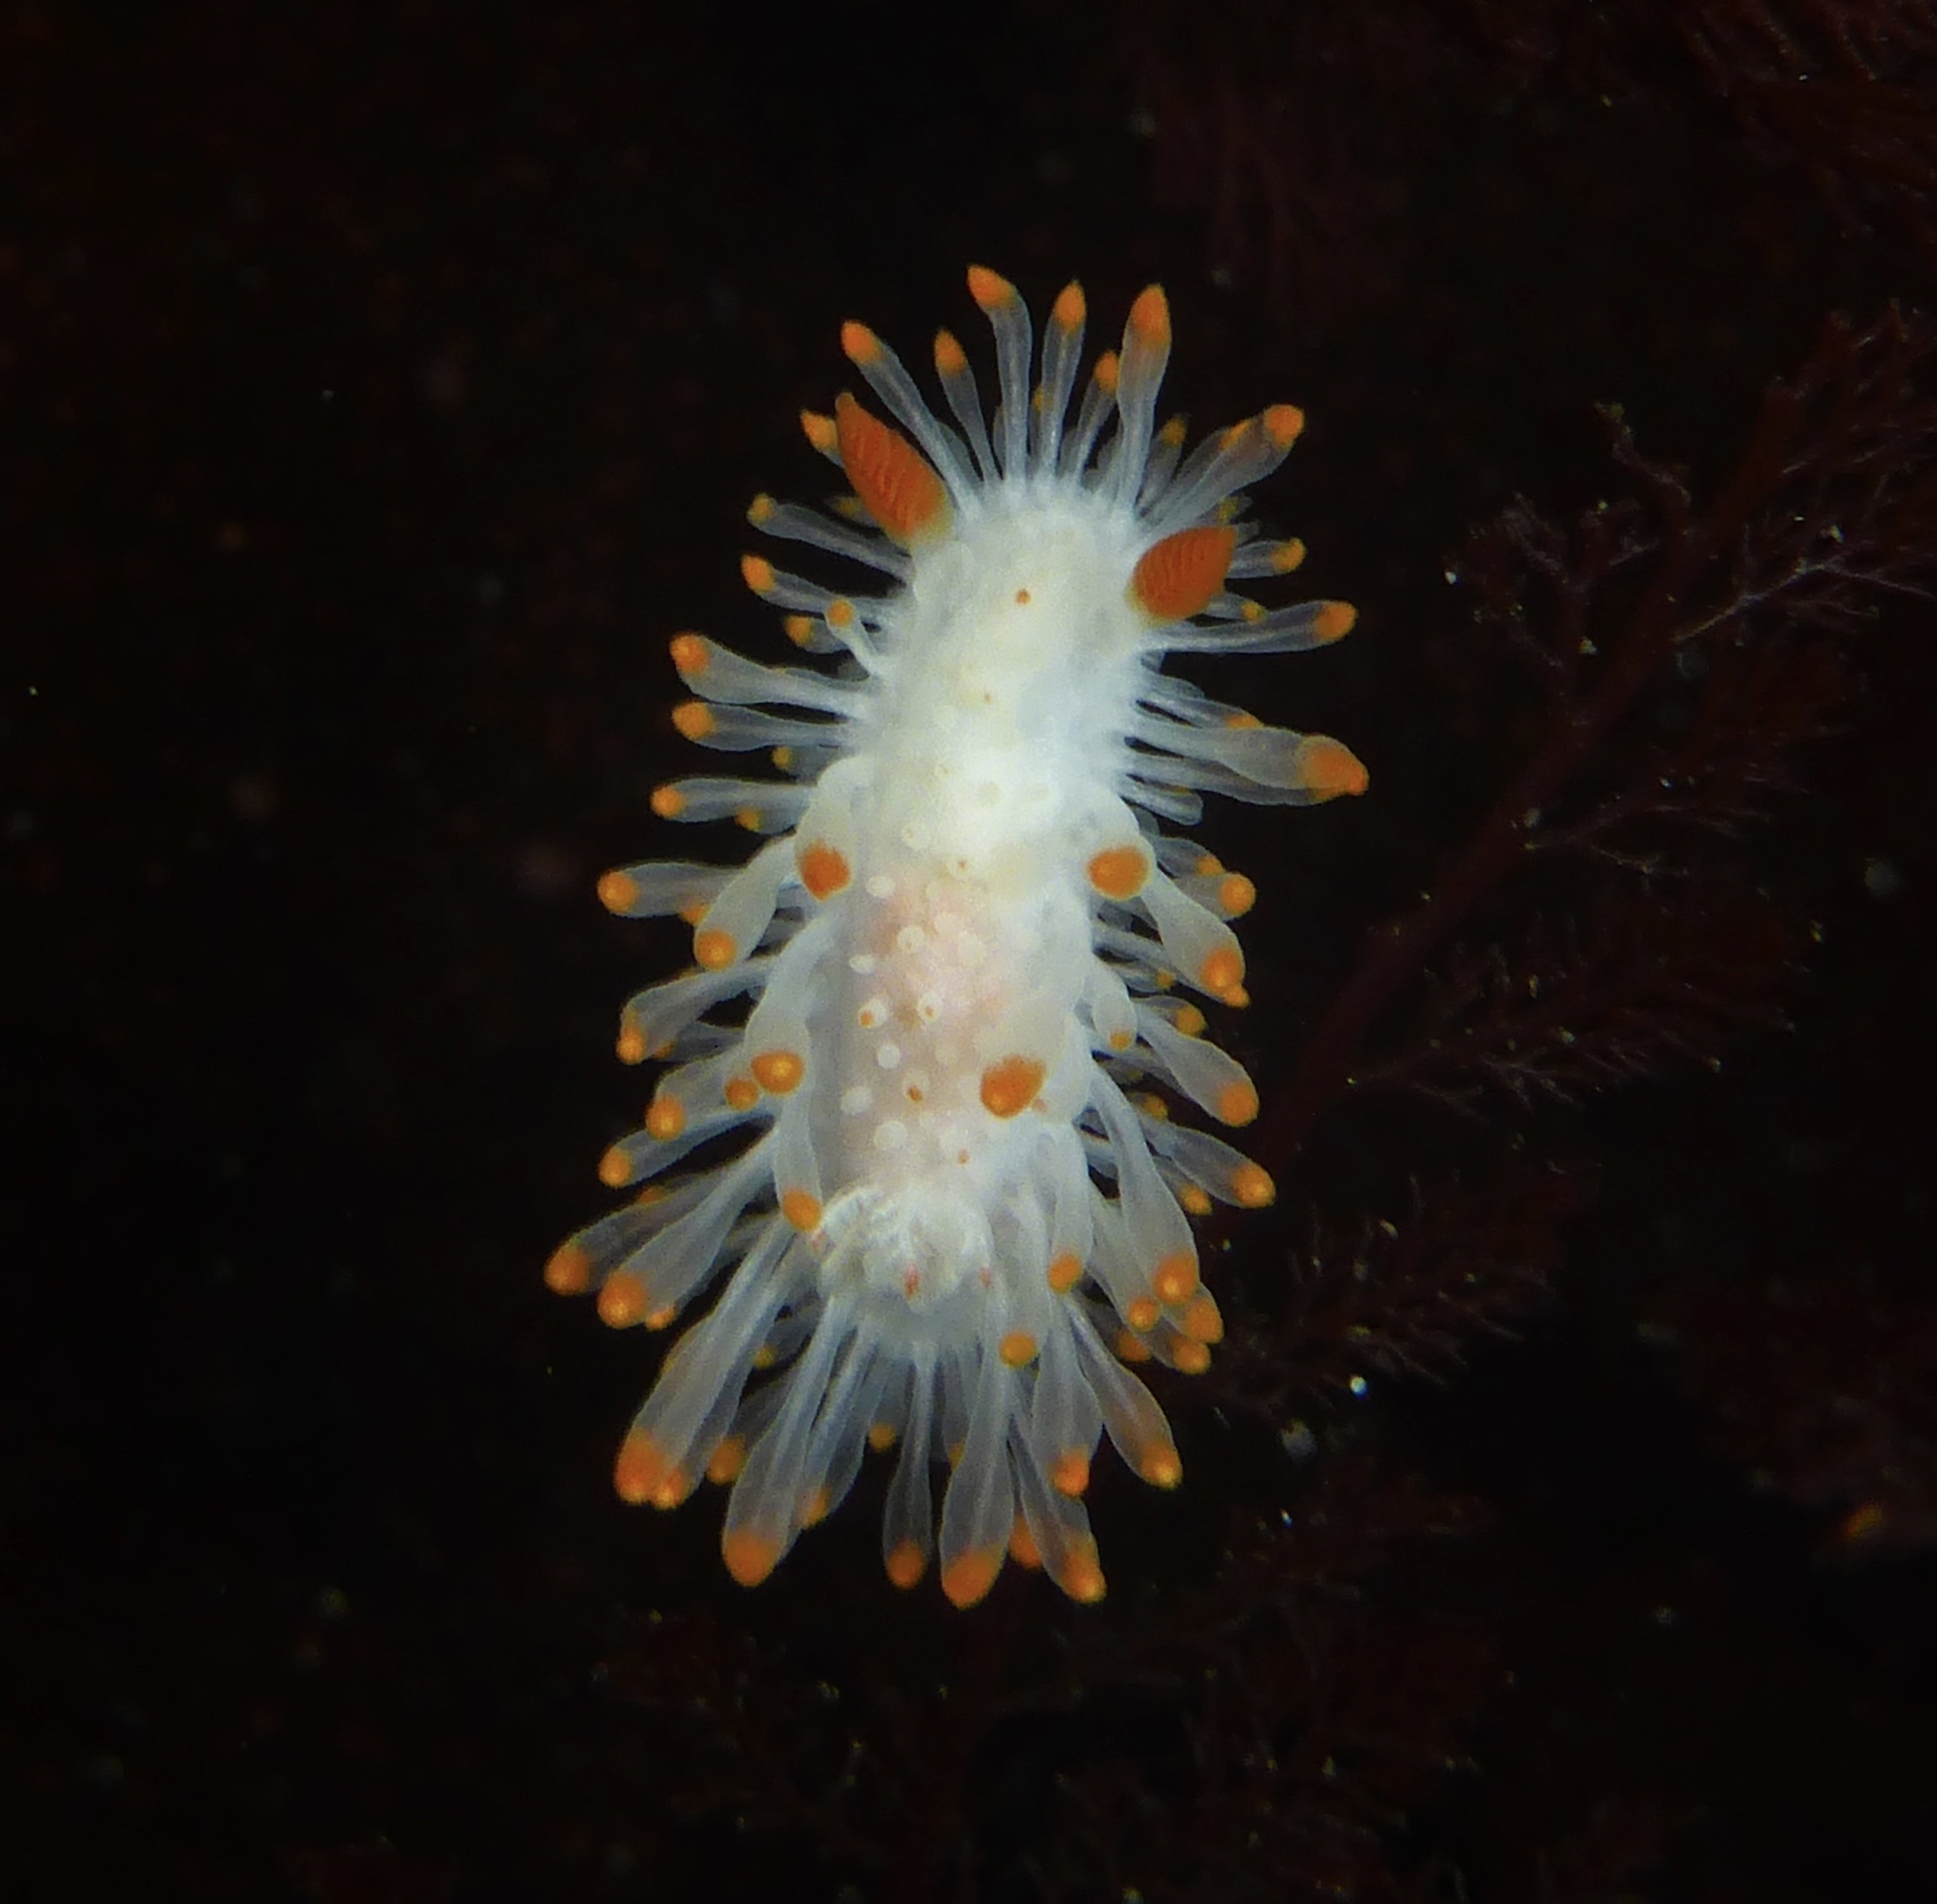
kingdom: Animalia
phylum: Mollusca
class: Gastropoda
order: Nudibranchia
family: Polyceridae
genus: Limacia
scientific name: Limacia cockerelli
